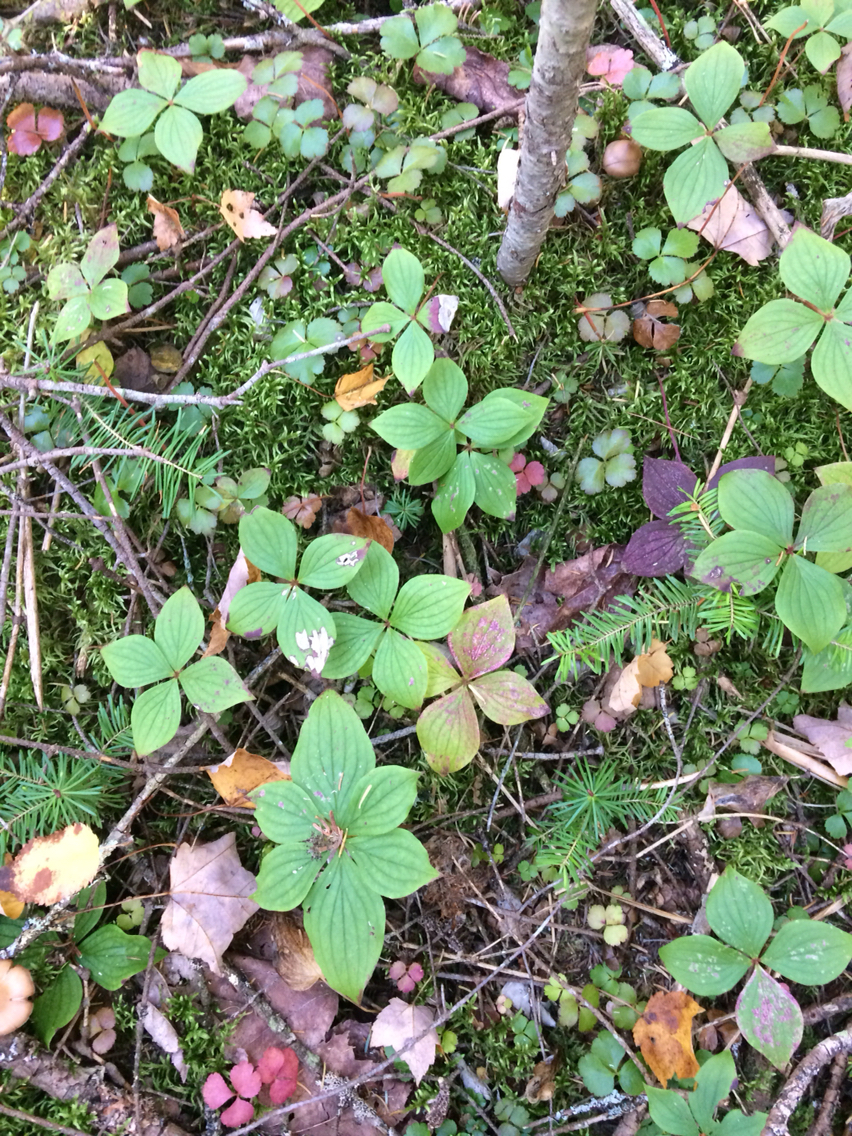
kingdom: Plantae
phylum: Tracheophyta
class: Magnoliopsida
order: Cornales
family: Cornaceae
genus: Cornus
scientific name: Cornus canadensis
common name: Creeping dogwood
